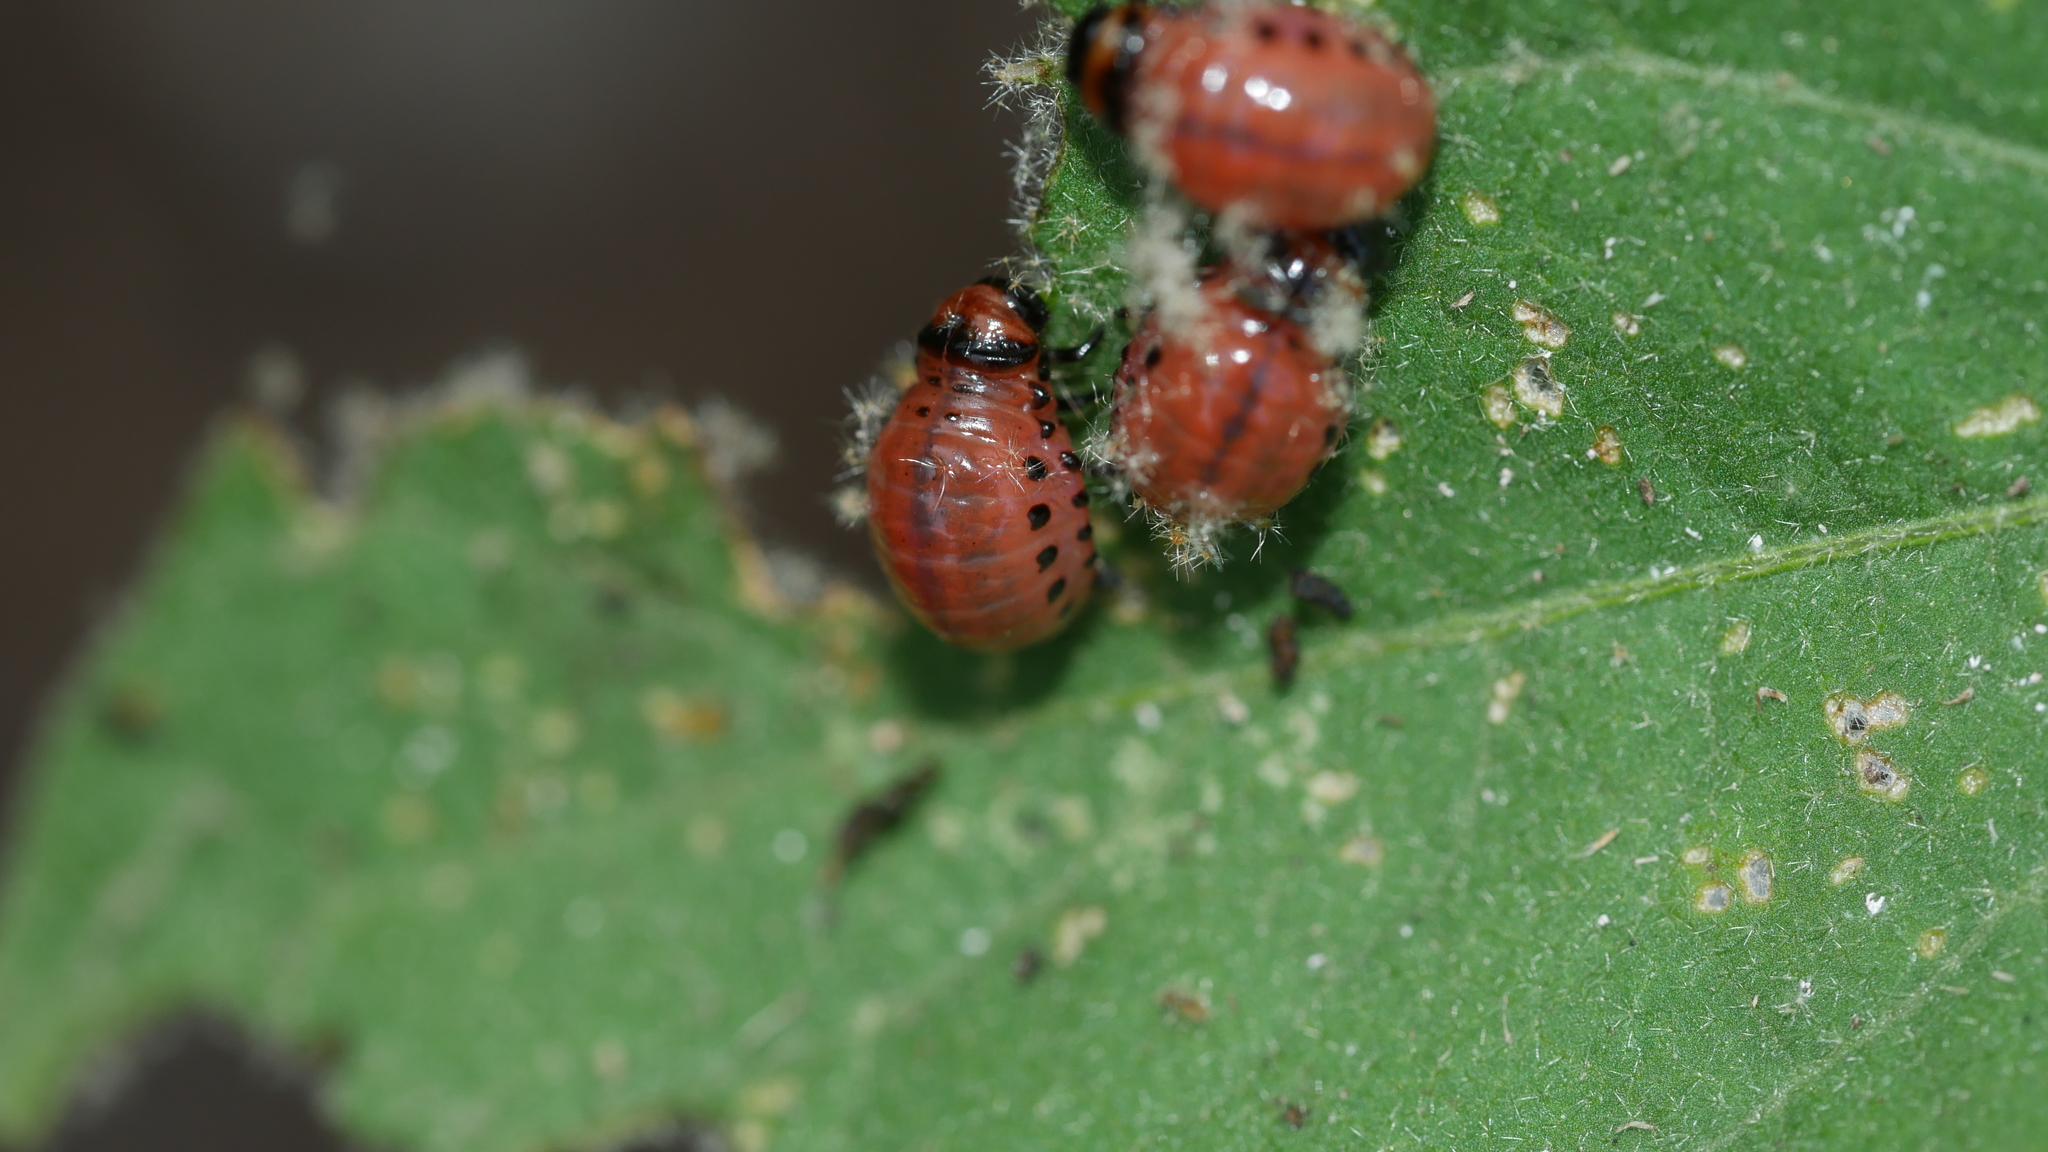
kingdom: Animalia
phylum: Arthropoda
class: Insecta
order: Coleoptera
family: Chrysomelidae
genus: Leptinotarsa
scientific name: Leptinotarsa decemlineata
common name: Colorado potato beetle
